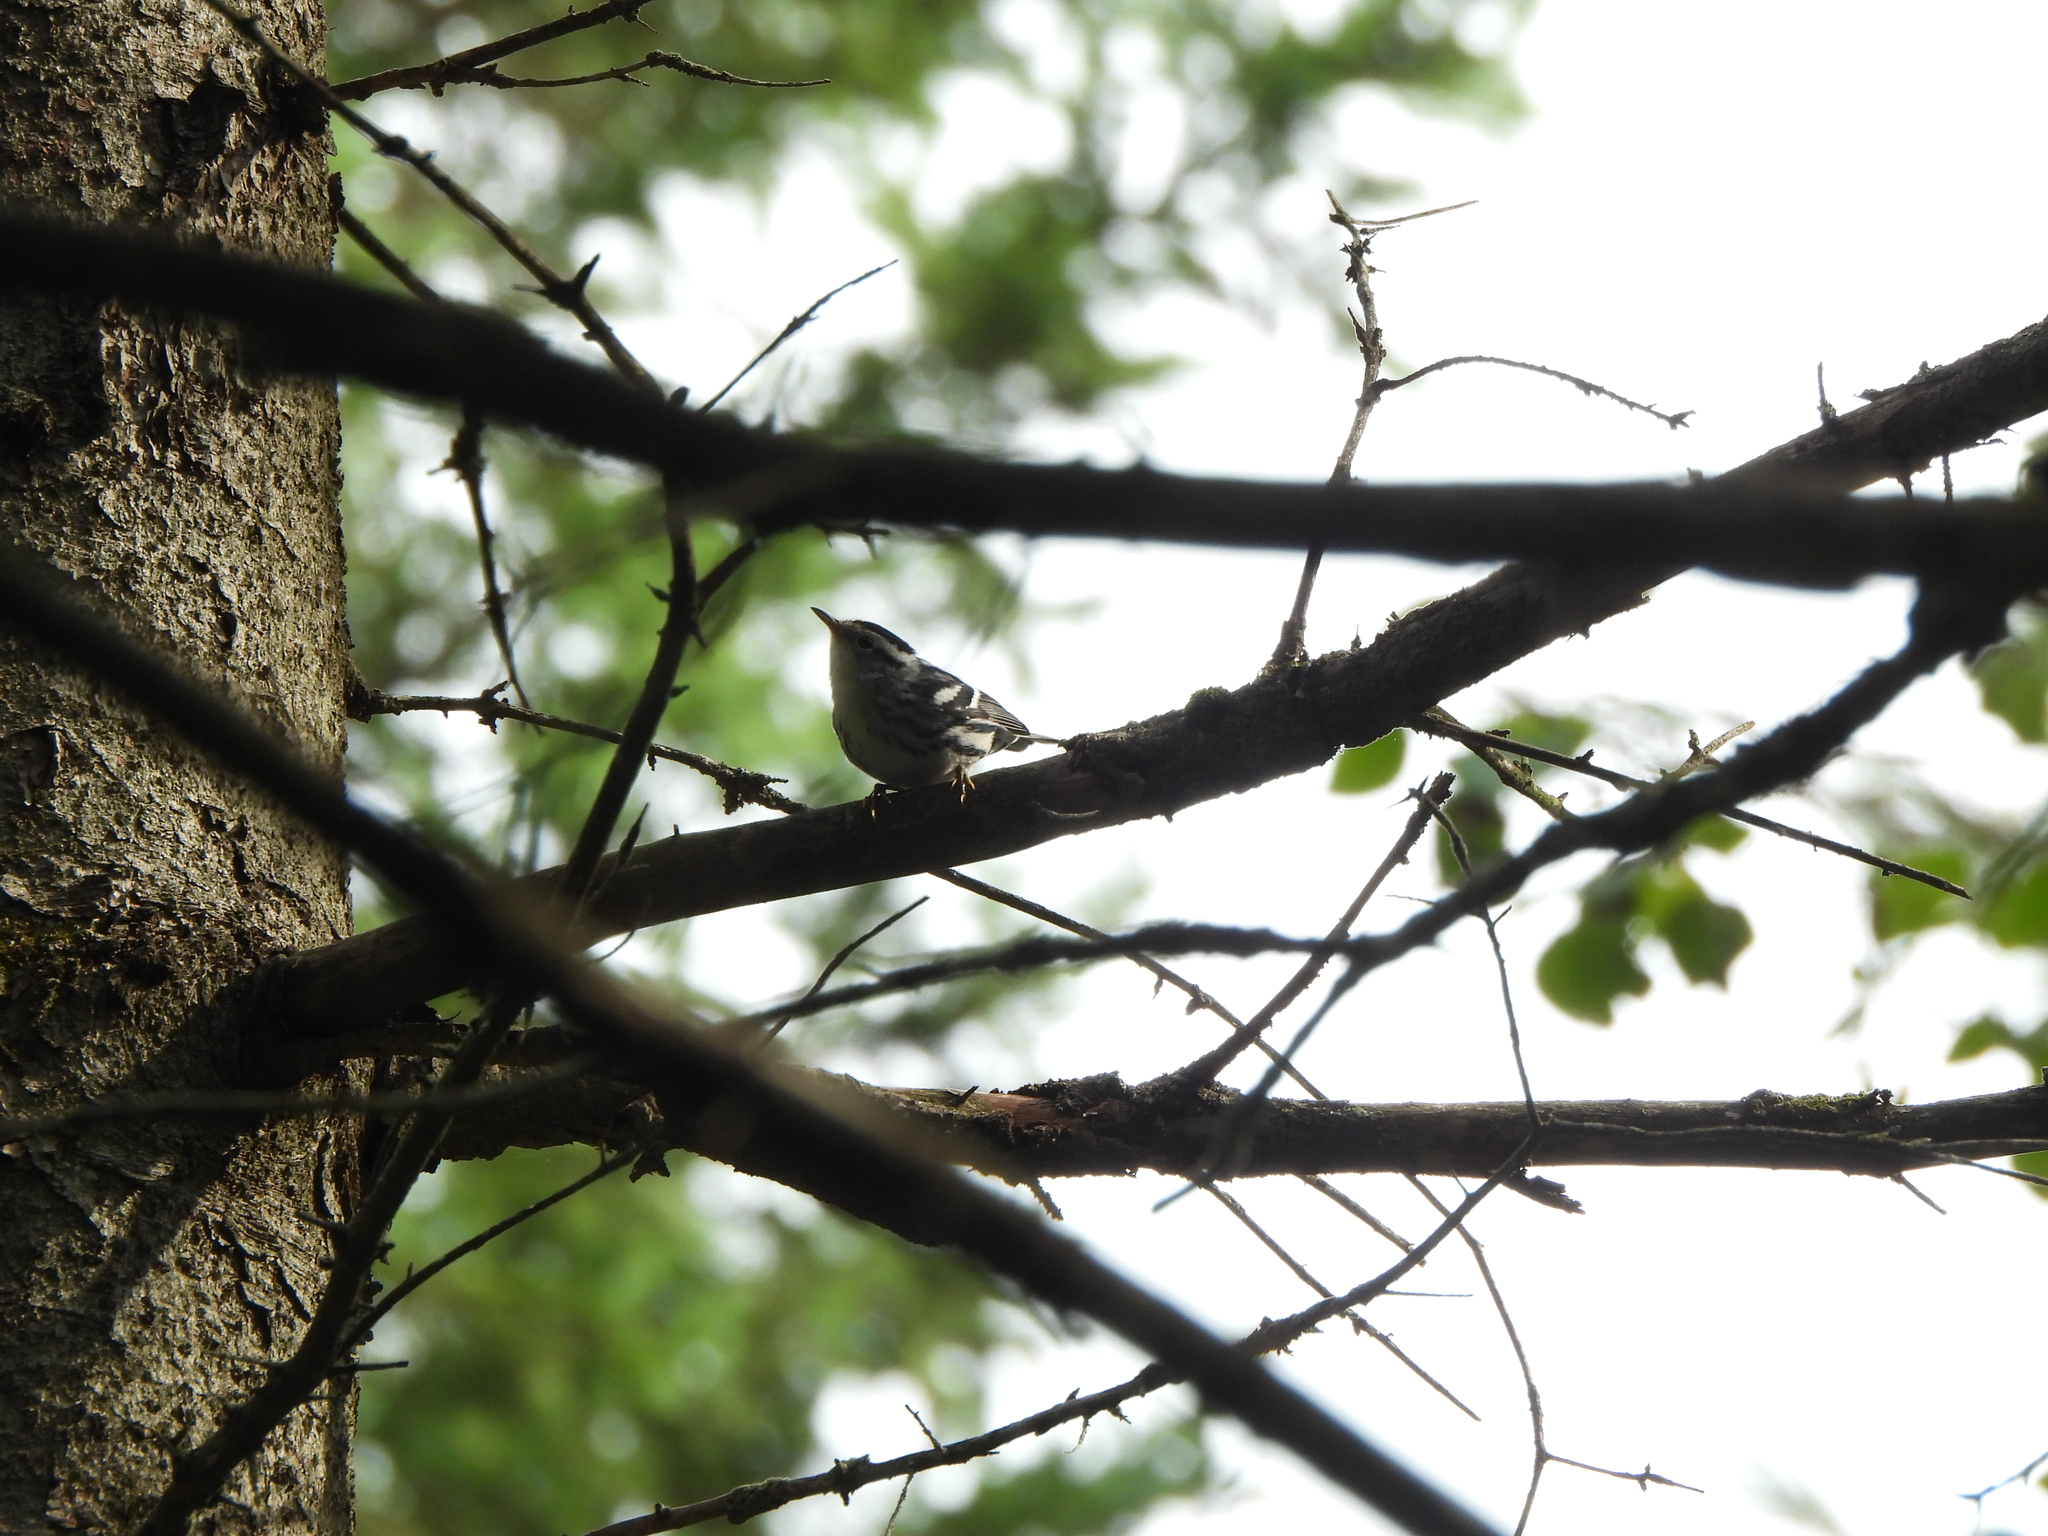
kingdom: Animalia
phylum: Chordata
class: Aves
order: Passeriformes
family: Parulidae
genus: Mniotilta
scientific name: Mniotilta varia
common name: Black-and-white warbler
